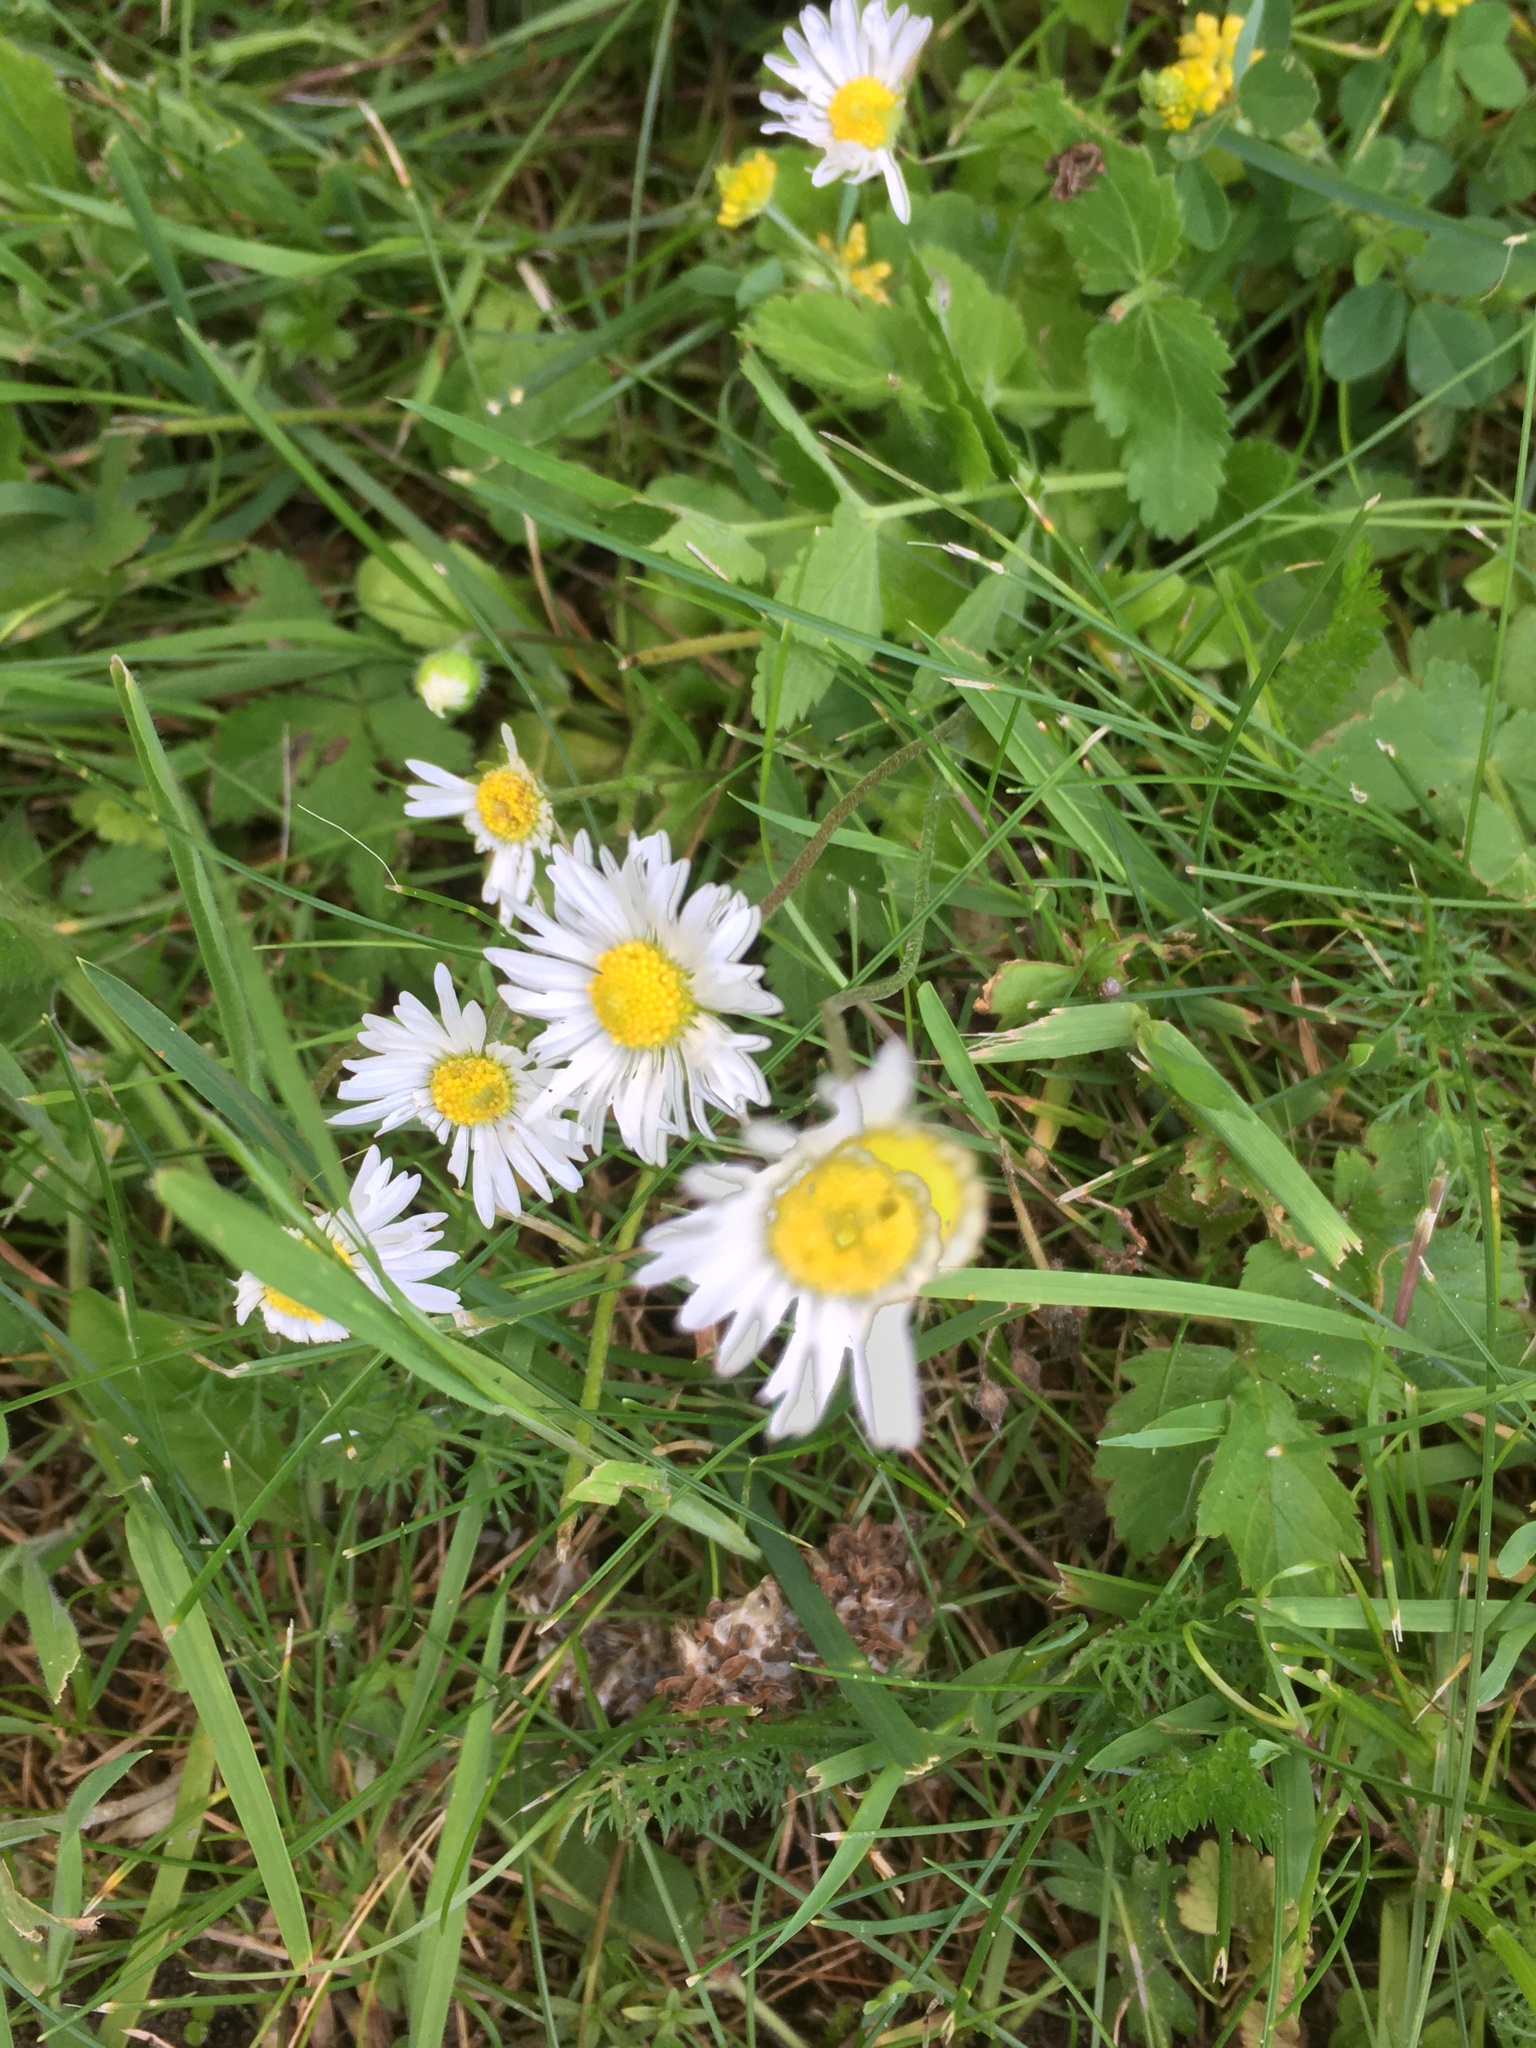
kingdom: Plantae
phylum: Tracheophyta
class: Magnoliopsida
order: Asterales
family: Asteraceae
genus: Bellis
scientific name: Bellis perennis
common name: Lawndaisy
